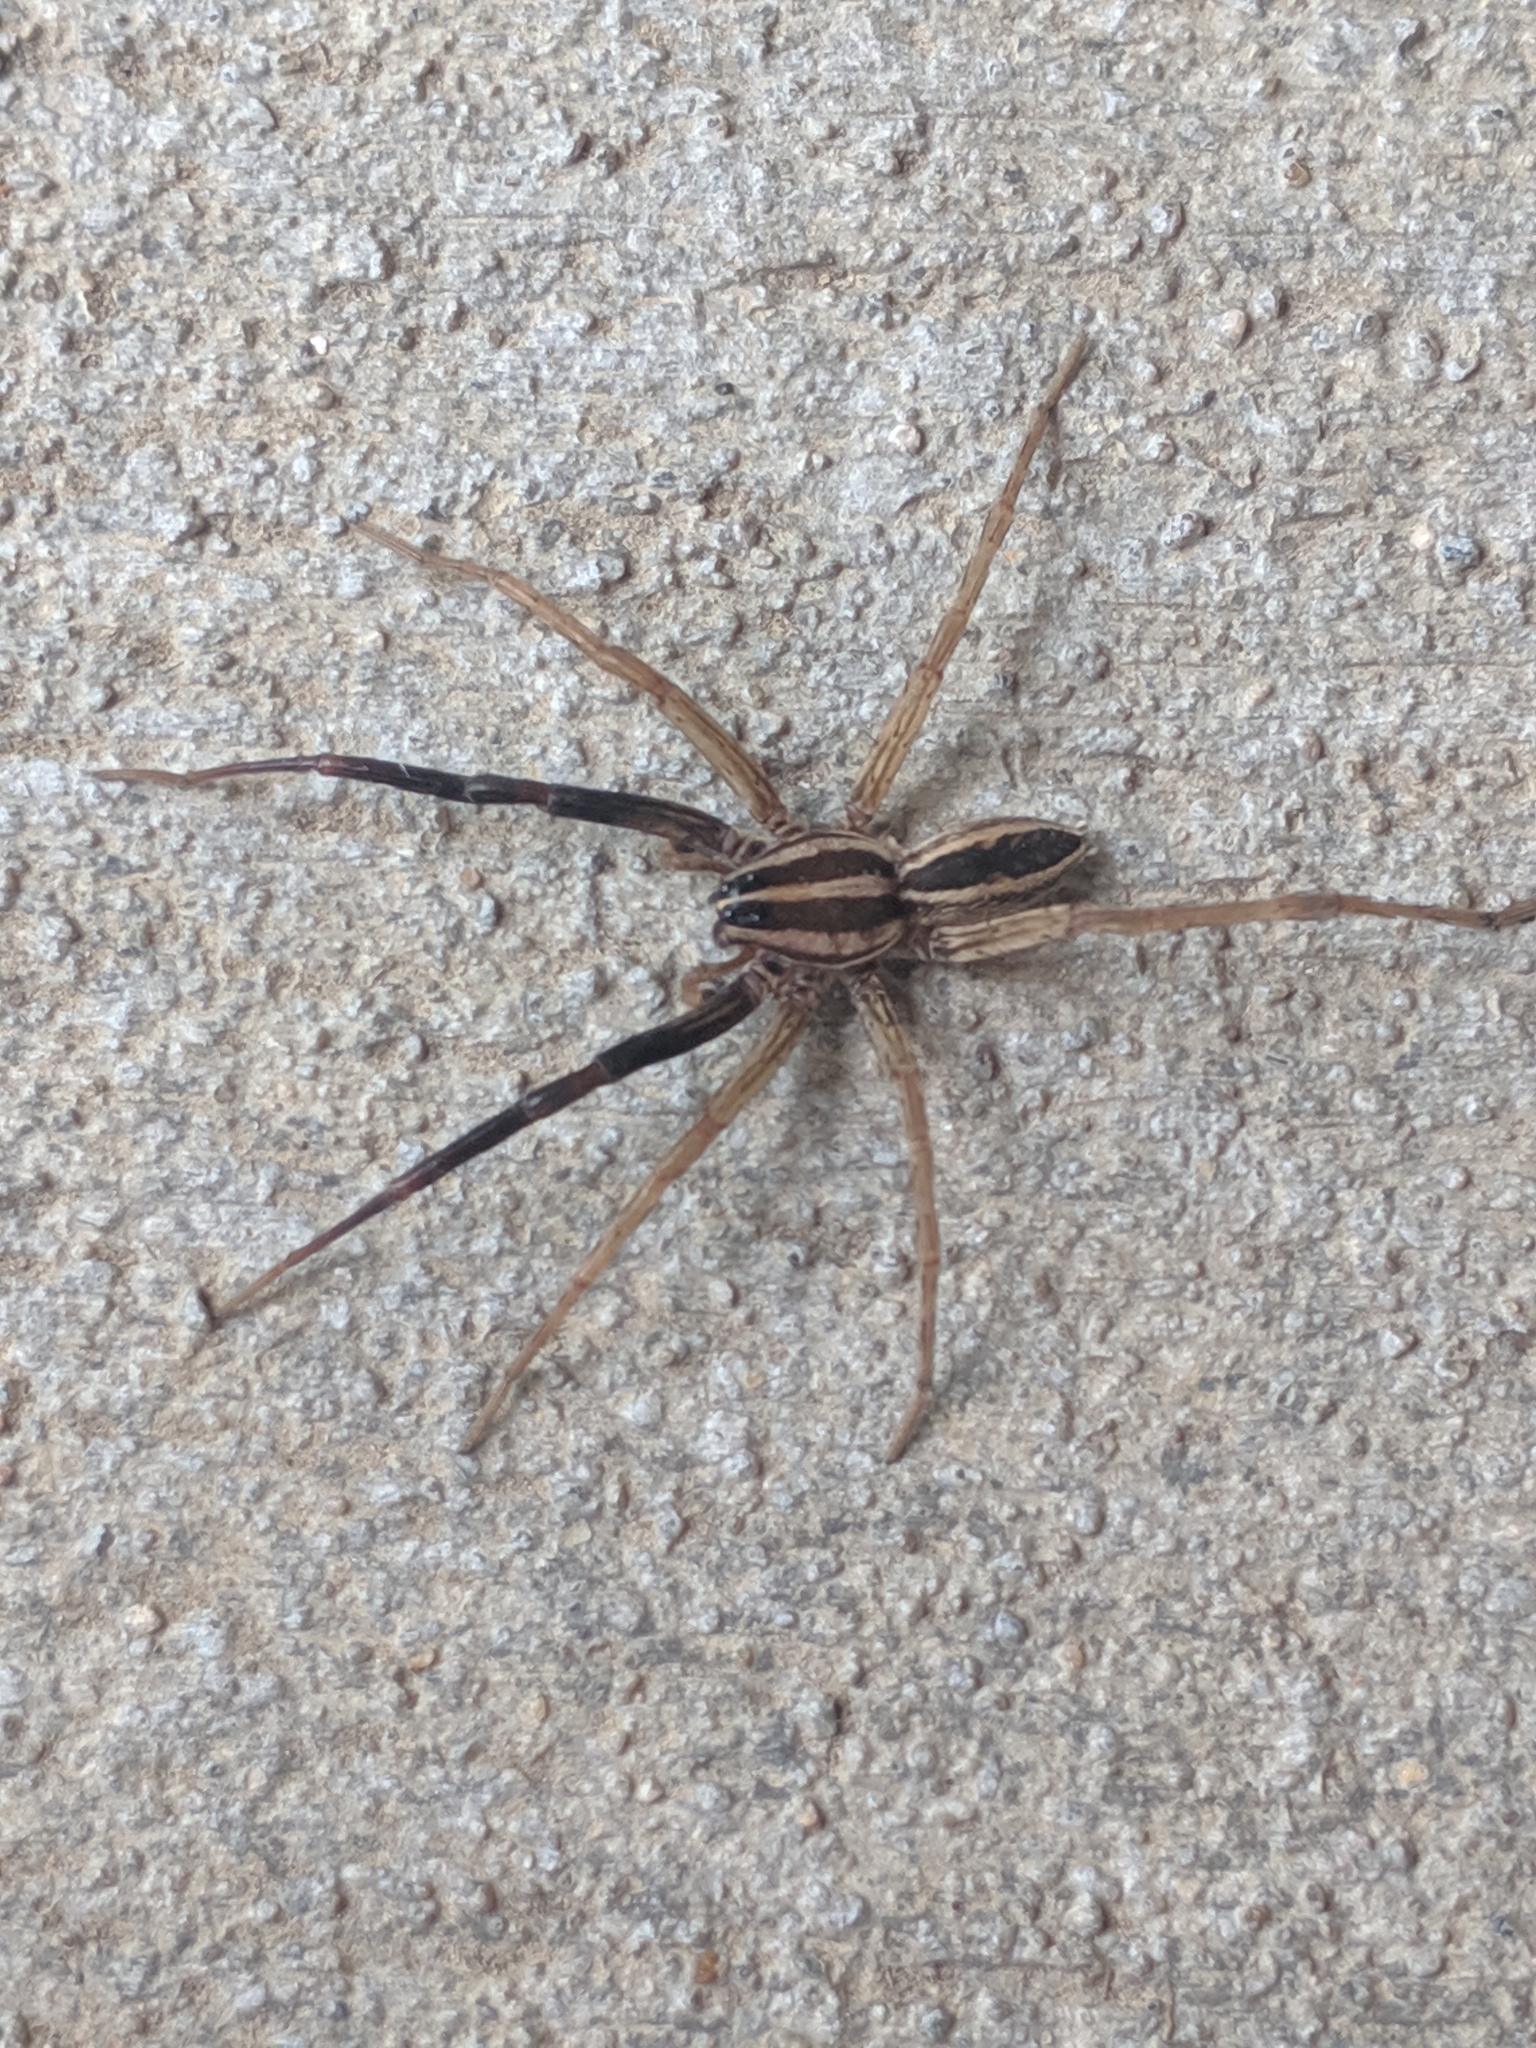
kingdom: Animalia
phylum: Arthropoda
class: Arachnida
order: Araneae
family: Lycosidae
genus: Rabidosa
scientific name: Rabidosa rabida
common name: Rabid wolf spider
